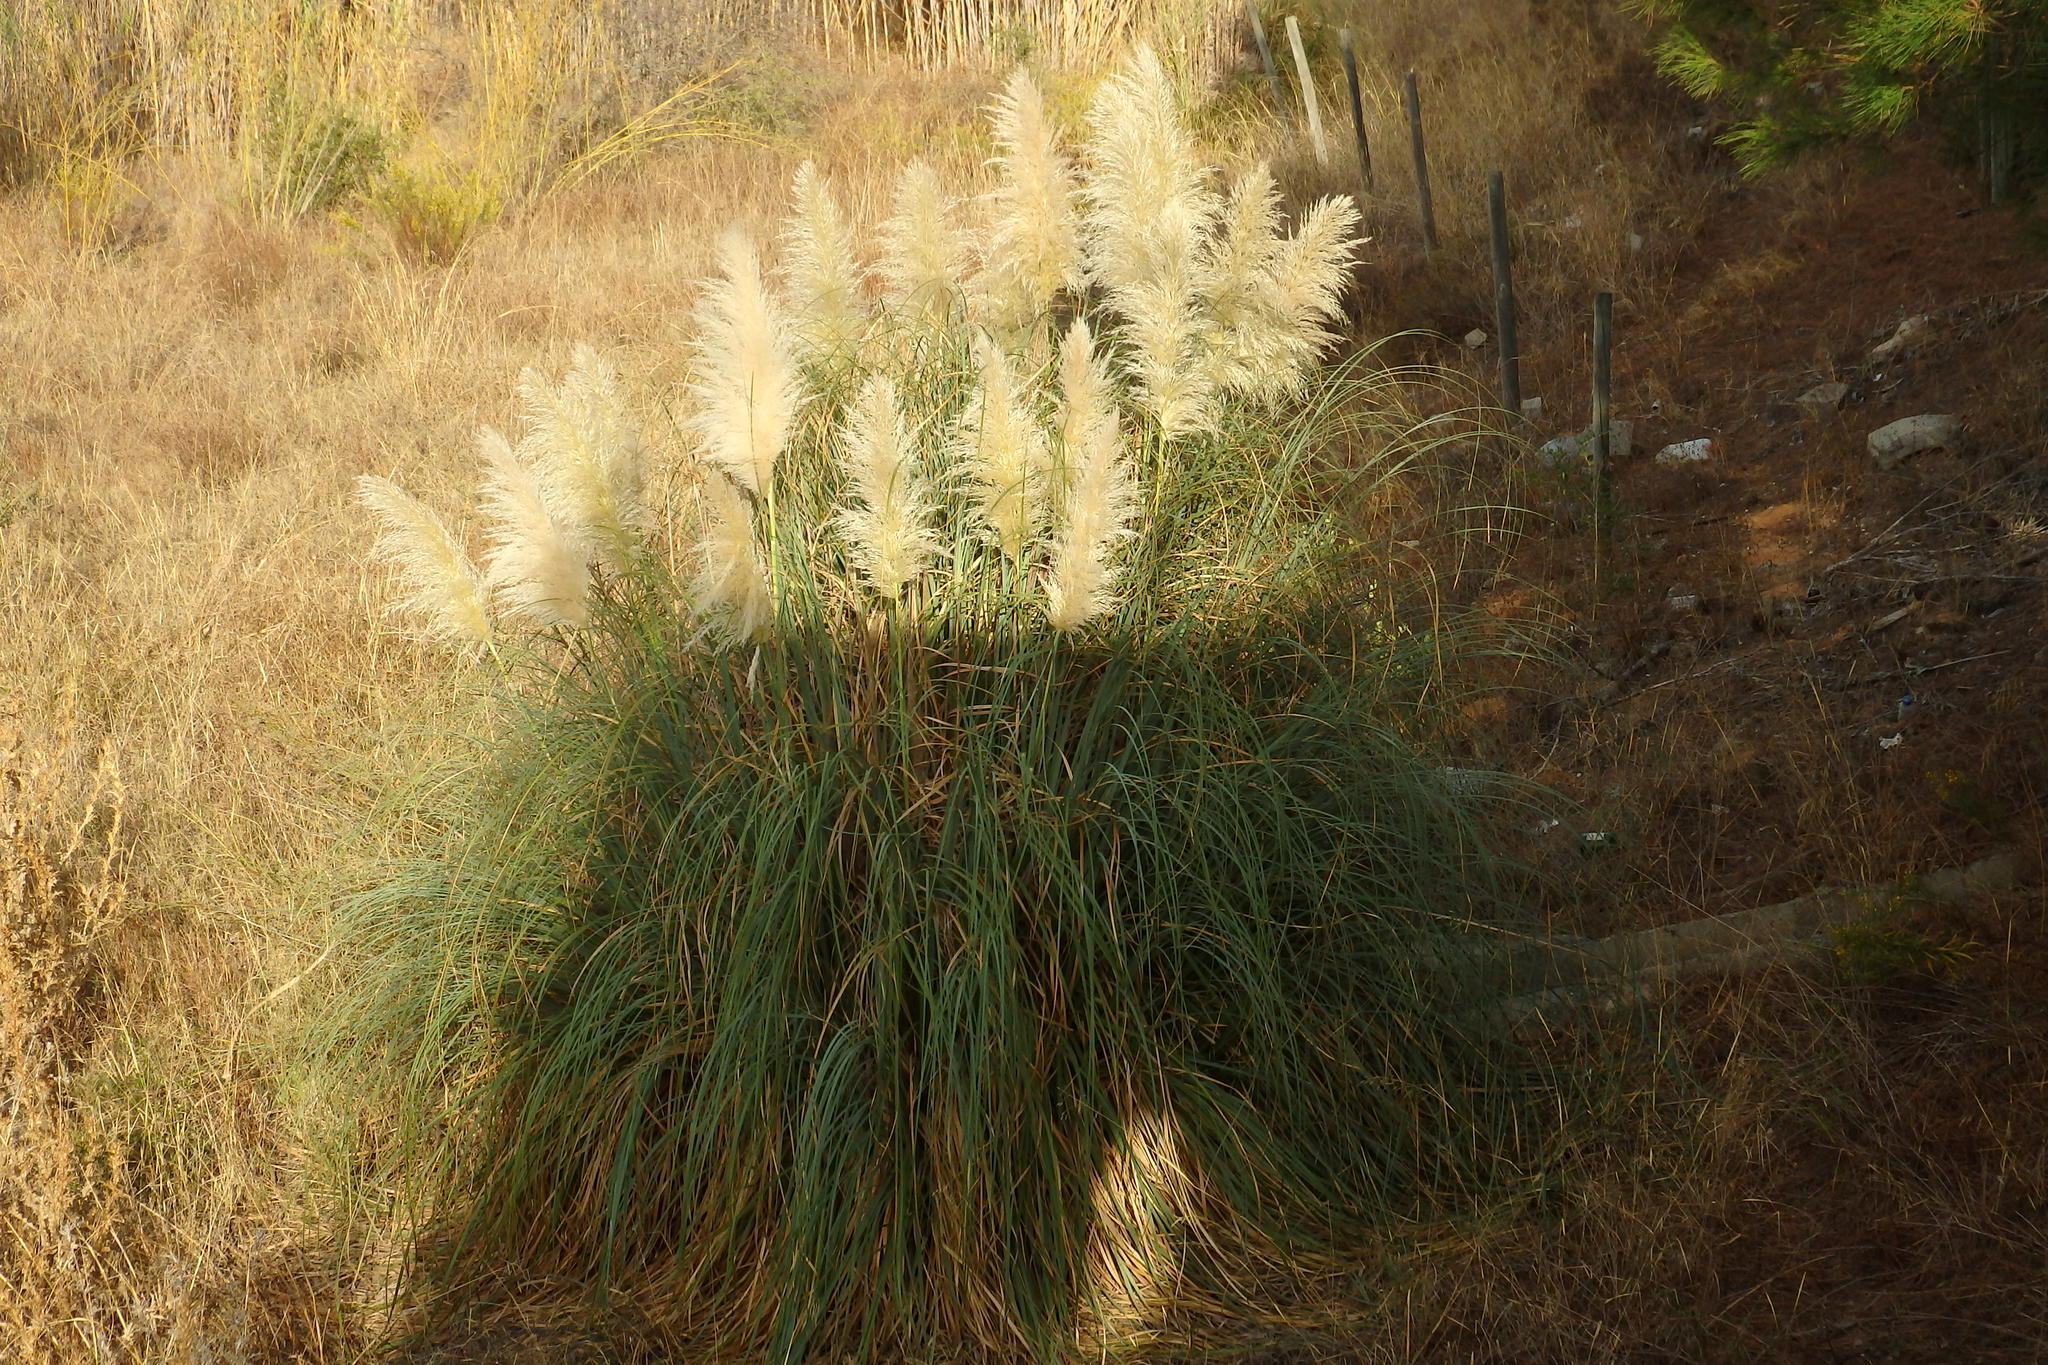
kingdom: Plantae
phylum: Tracheophyta
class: Liliopsida
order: Poales
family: Poaceae
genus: Cortaderia
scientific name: Cortaderia selloana
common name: Uruguayan pampas grass
